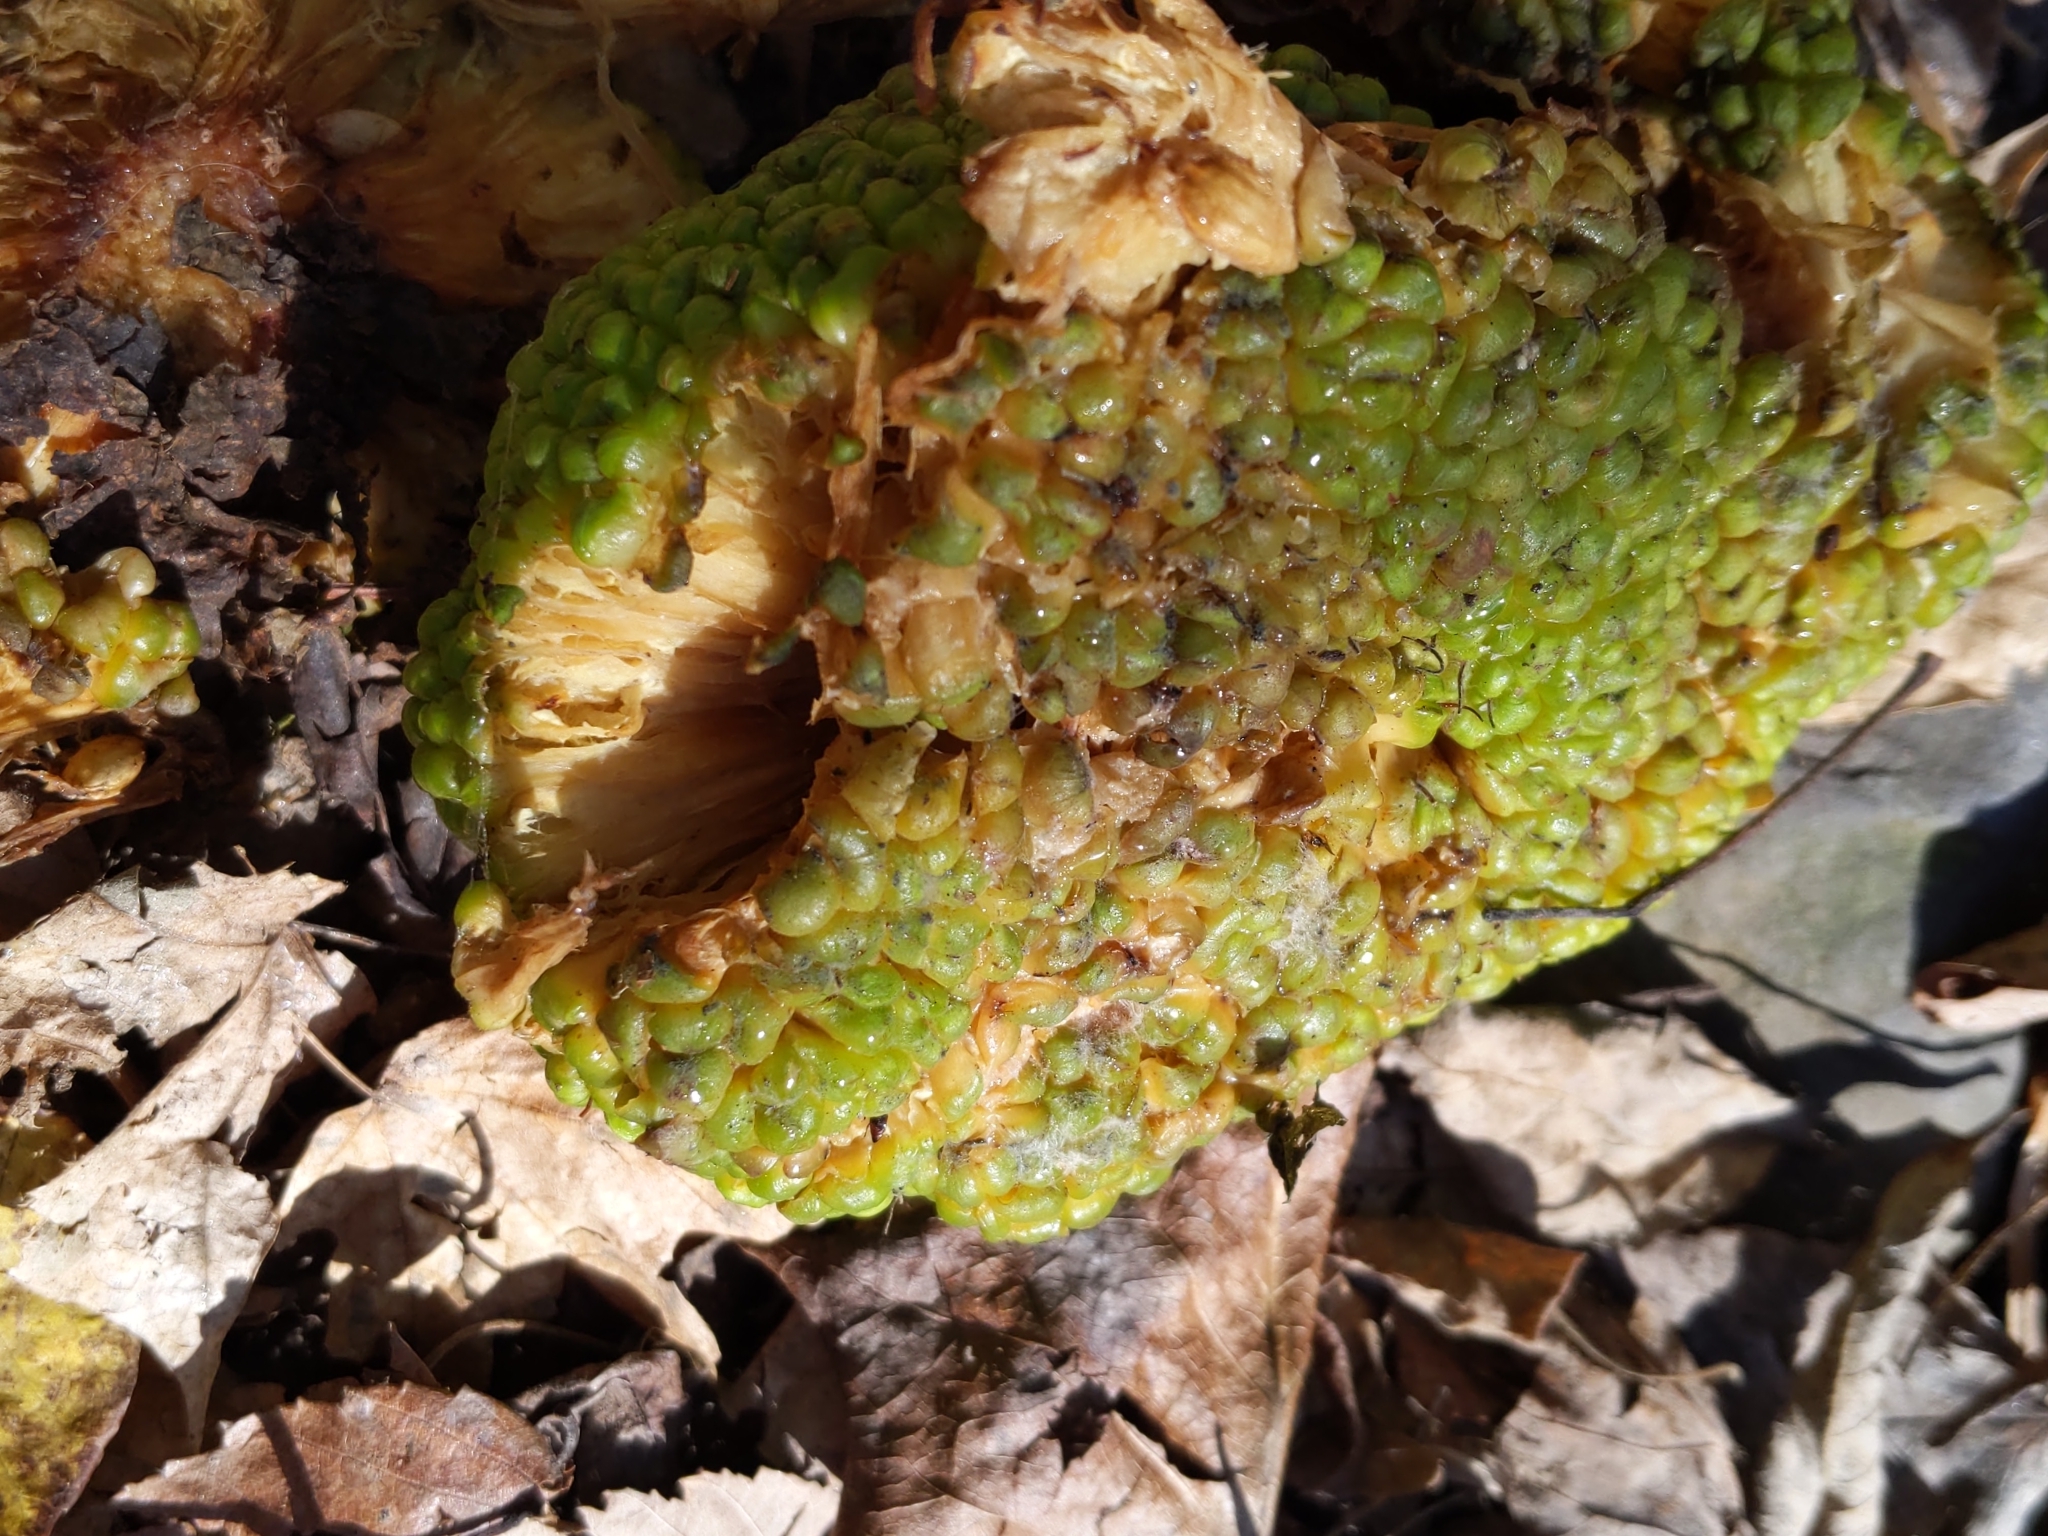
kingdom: Plantae
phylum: Tracheophyta
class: Magnoliopsida
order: Rosales
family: Moraceae
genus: Maclura
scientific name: Maclura pomifera
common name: Osage-orange
